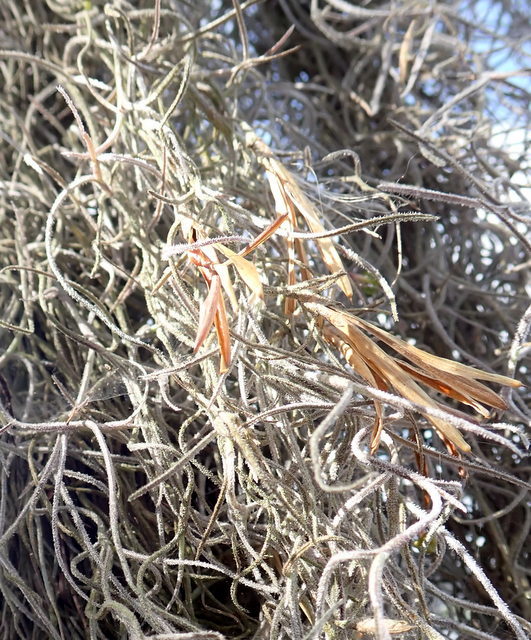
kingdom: Plantae
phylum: Tracheophyta
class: Liliopsida
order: Poales
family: Bromeliaceae
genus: Tillandsia
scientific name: Tillandsia usneoides
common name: Spanish moss
